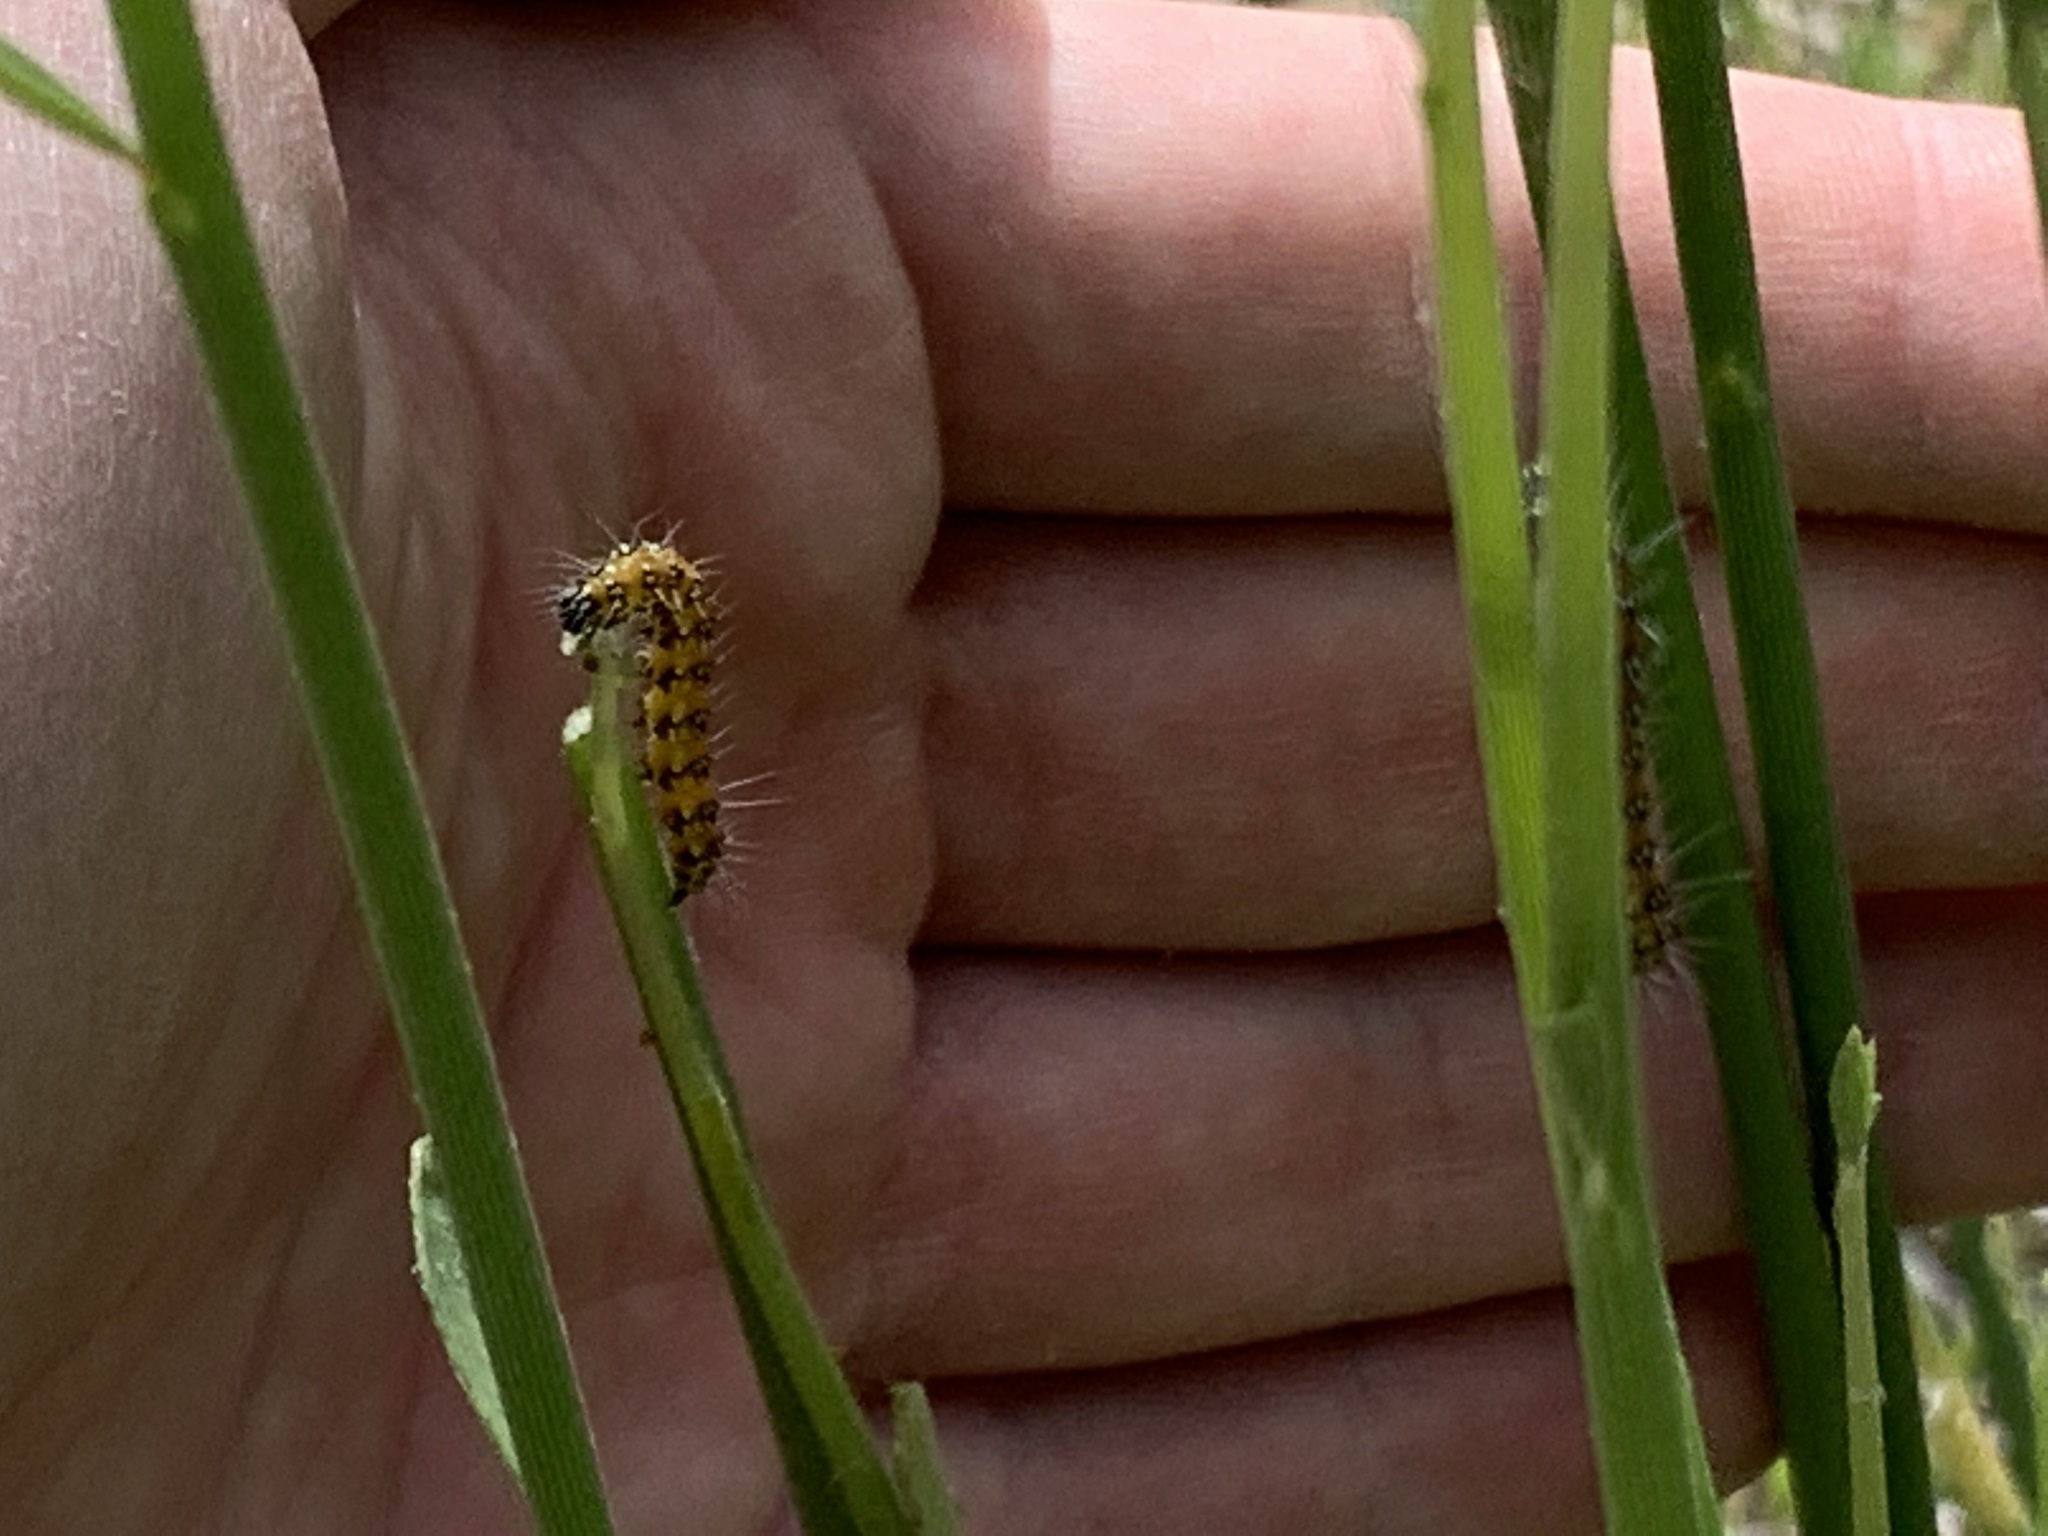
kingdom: Animalia
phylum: Arthropoda
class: Insecta
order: Lepidoptera
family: Crambidae
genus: Uresiphita
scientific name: Uresiphita reversalis
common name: Genista broom moth
